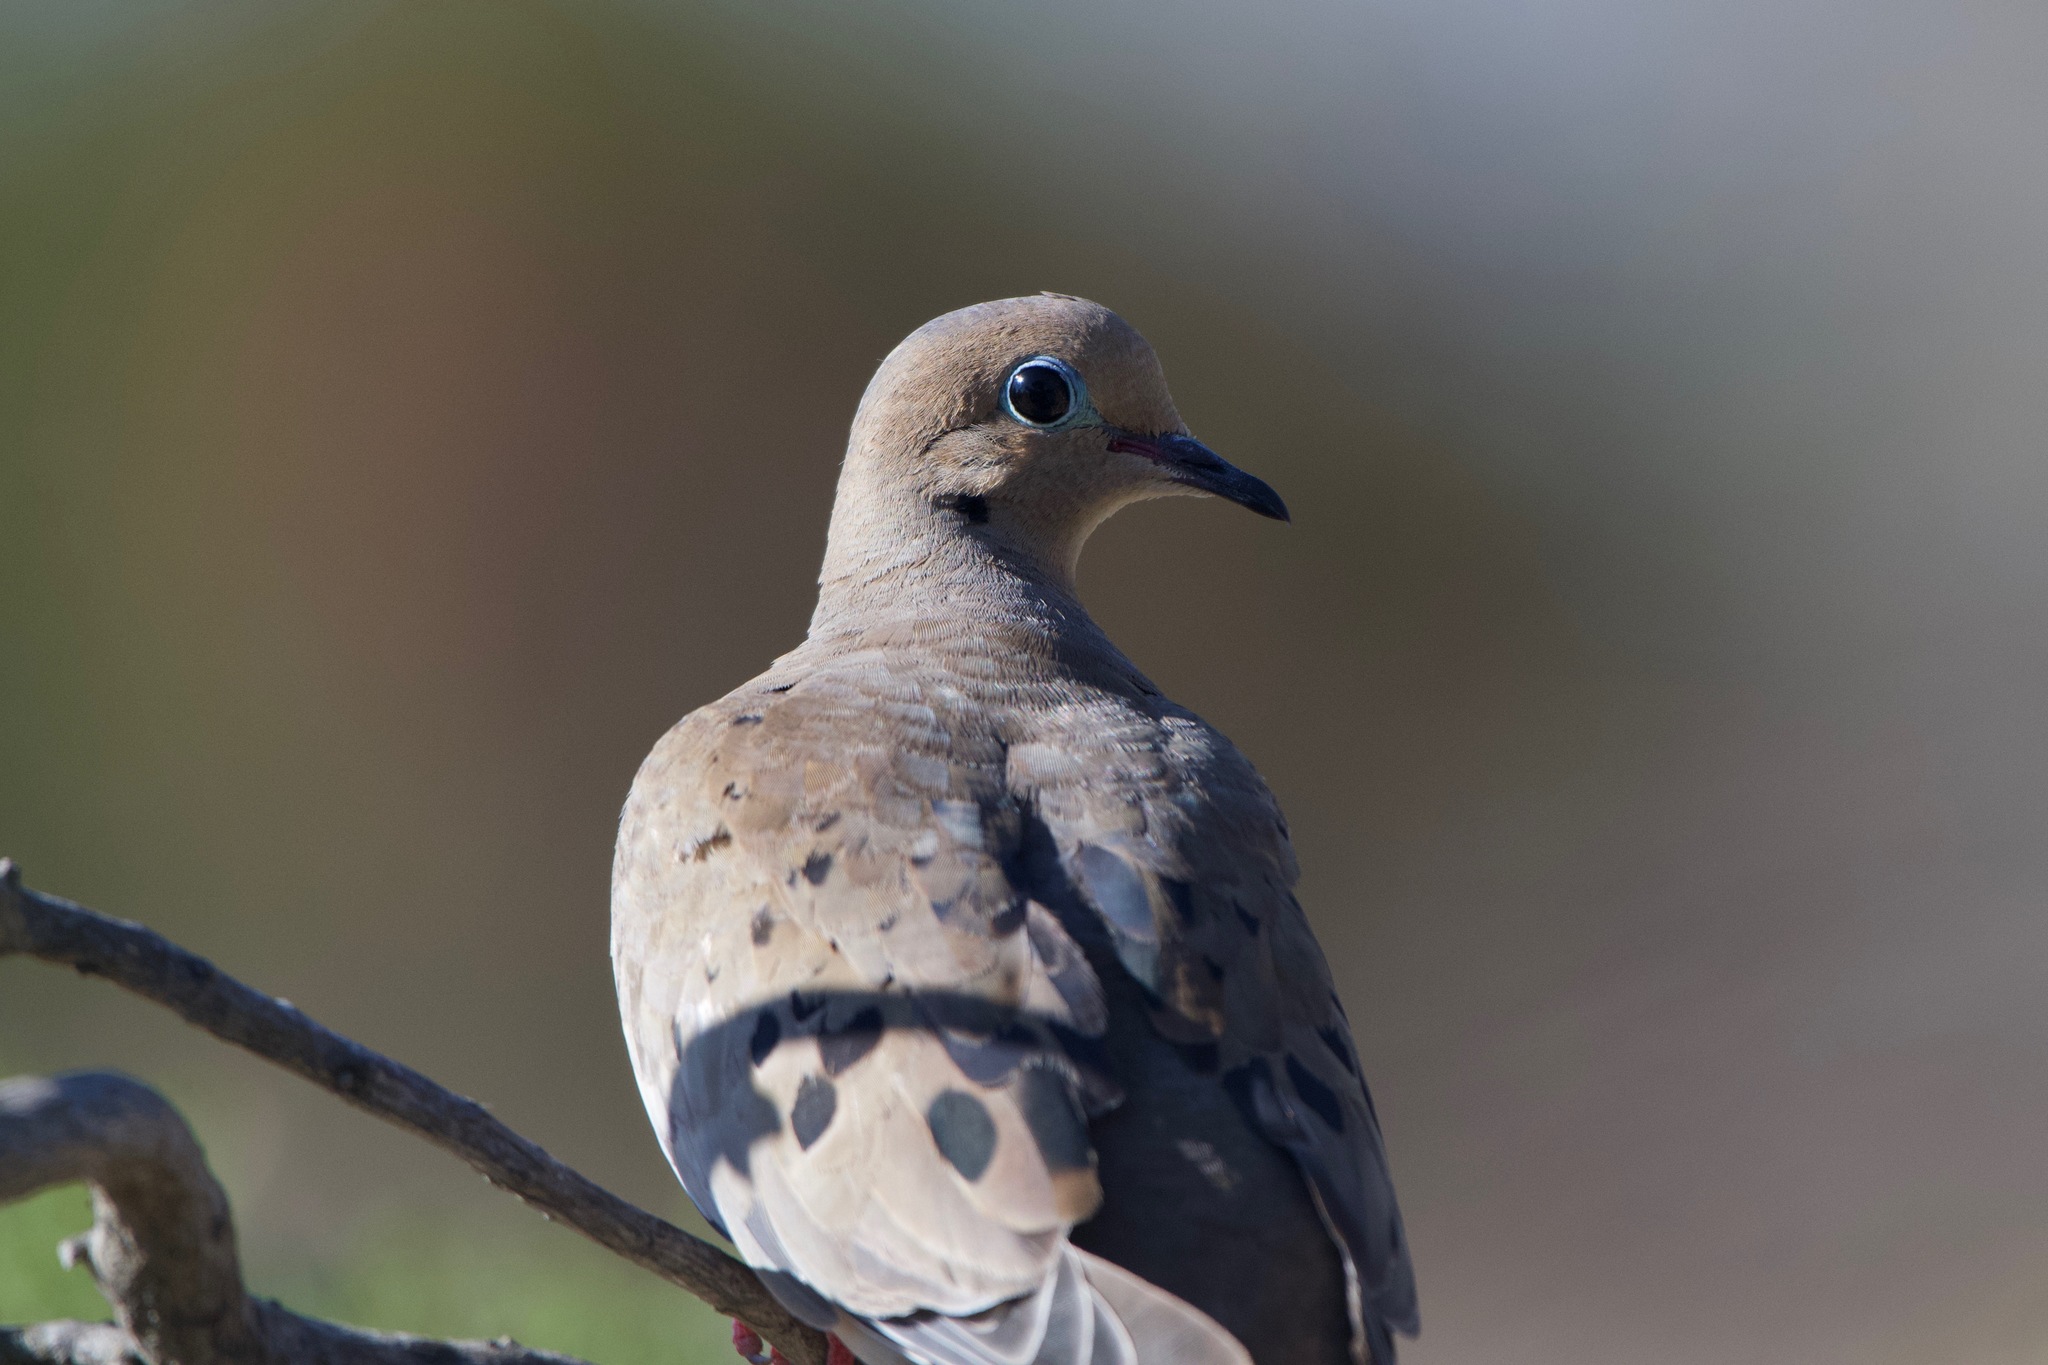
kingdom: Animalia
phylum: Chordata
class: Aves
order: Columbiformes
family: Columbidae
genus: Zenaida
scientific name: Zenaida macroura
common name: Mourning dove
